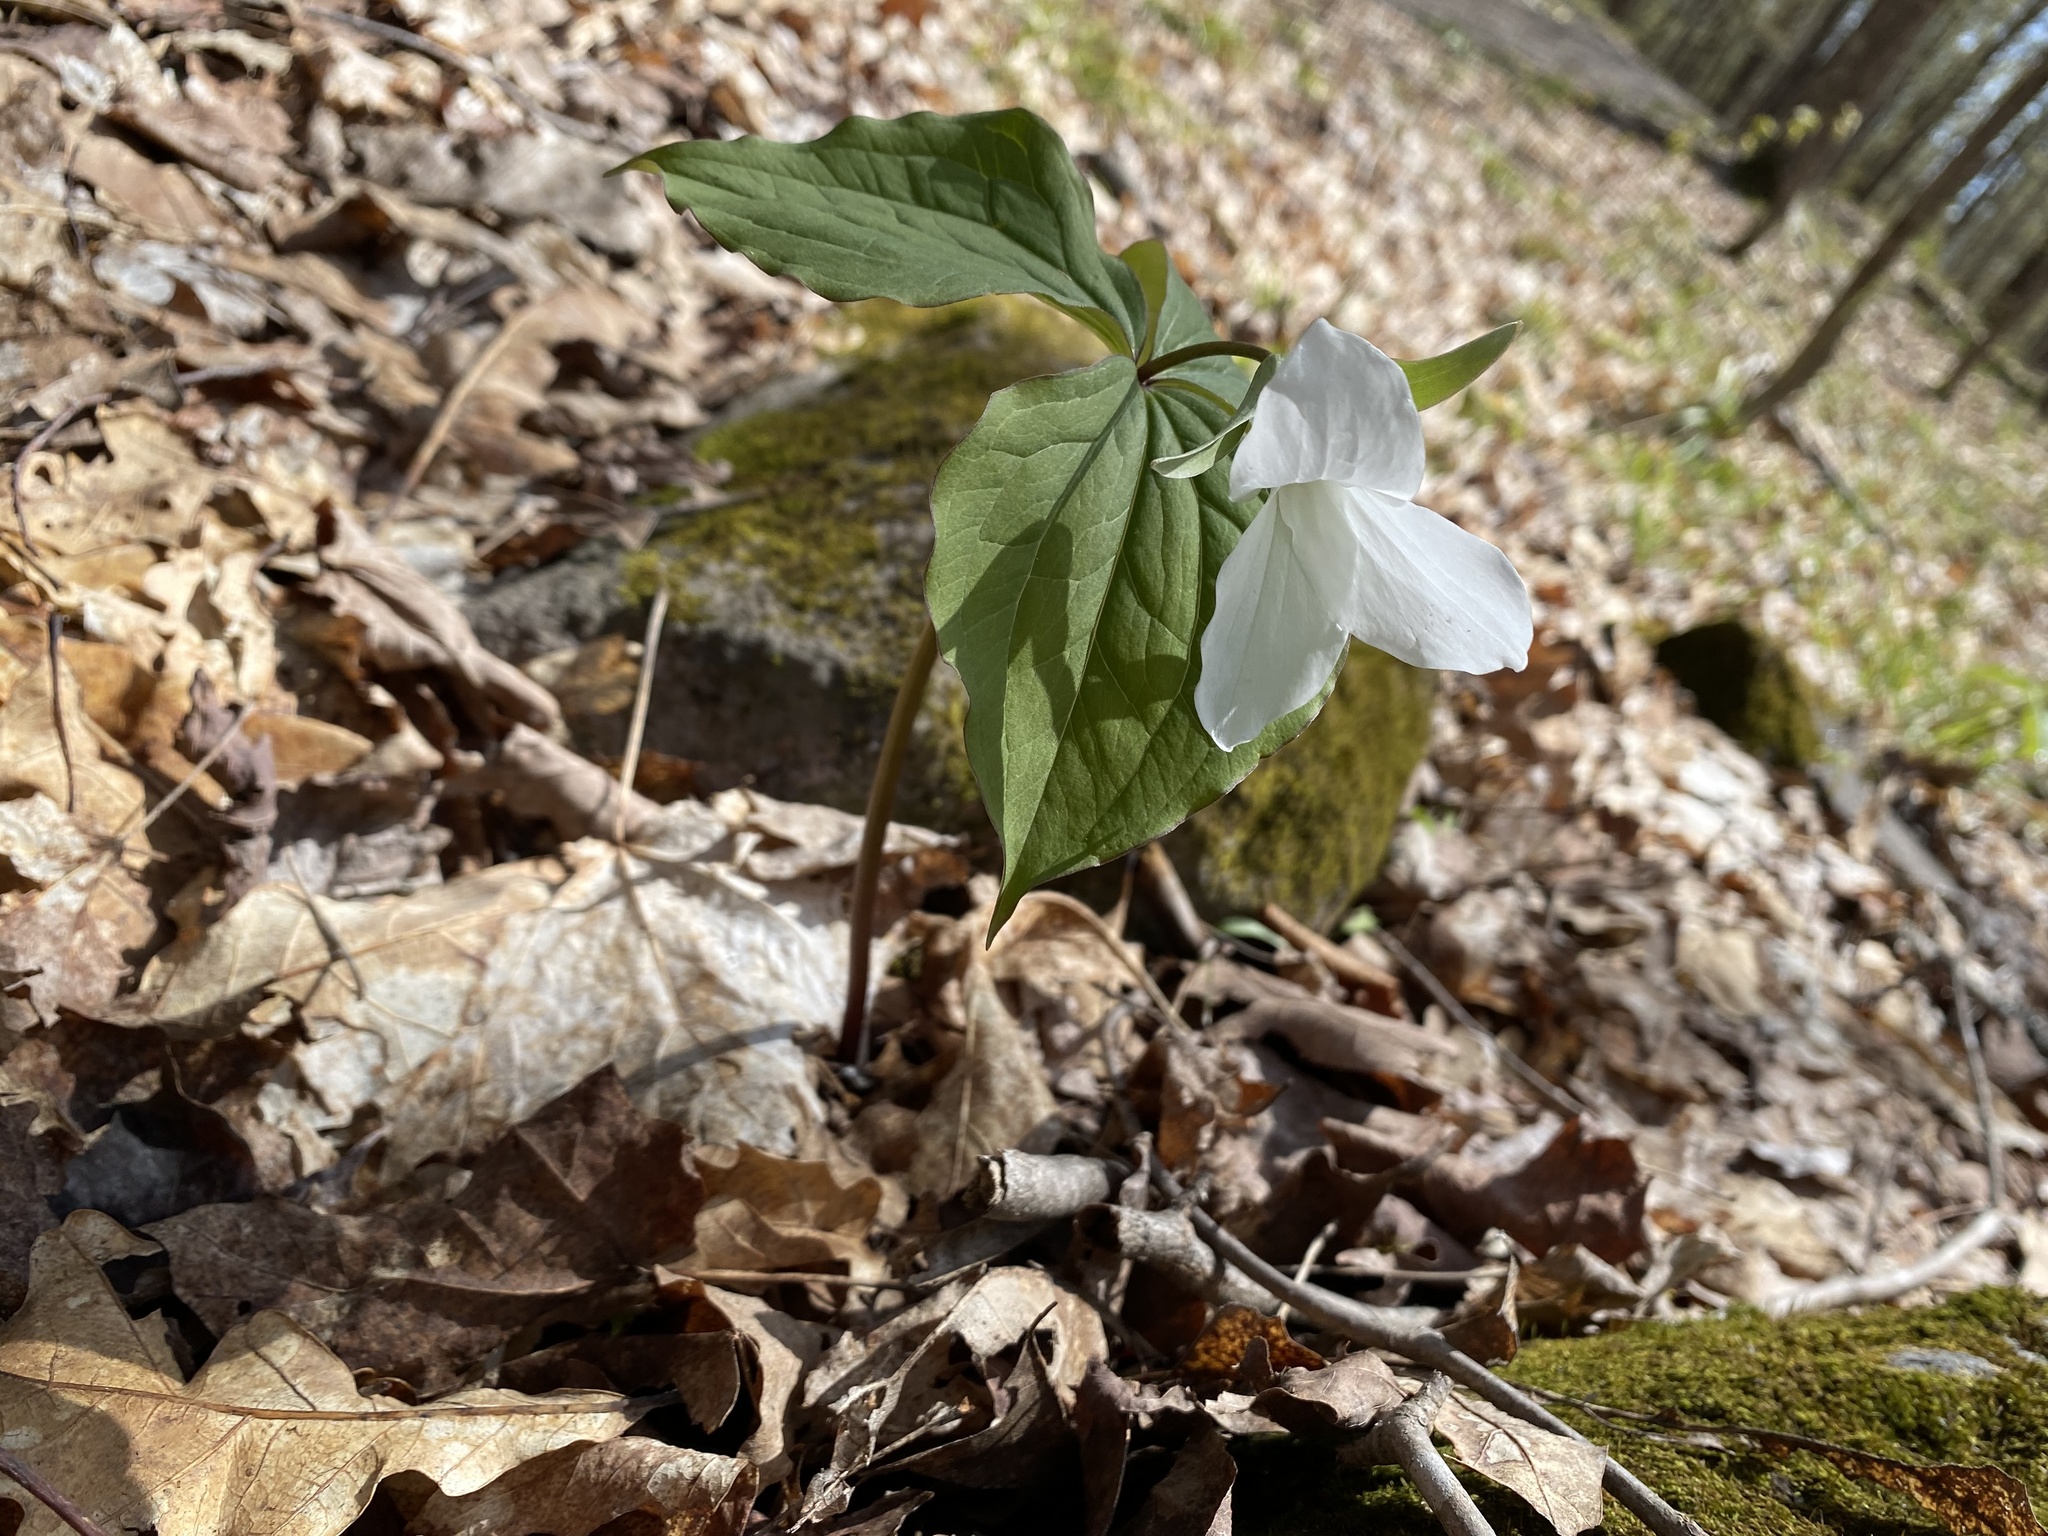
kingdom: Plantae
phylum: Tracheophyta
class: Liliopsida
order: Liliales
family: Melanthiaceae
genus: Trillium
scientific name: Trillium grandiflorum
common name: Great white trillium
